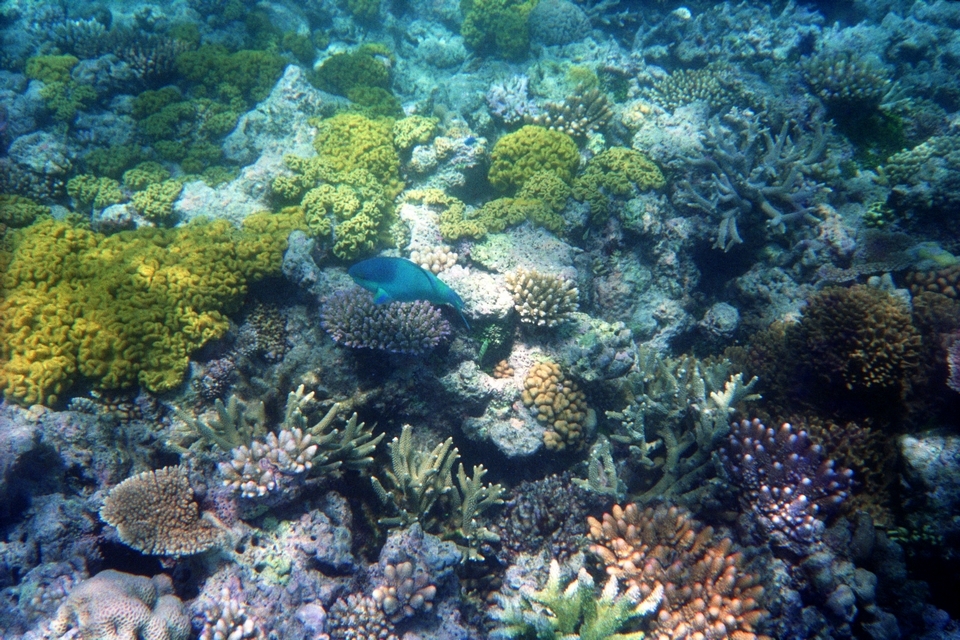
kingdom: Animalia
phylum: Chordata
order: Perciformes
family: Scaridae
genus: Scarus
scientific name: Scarus oviceps
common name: Blue parrotfish
